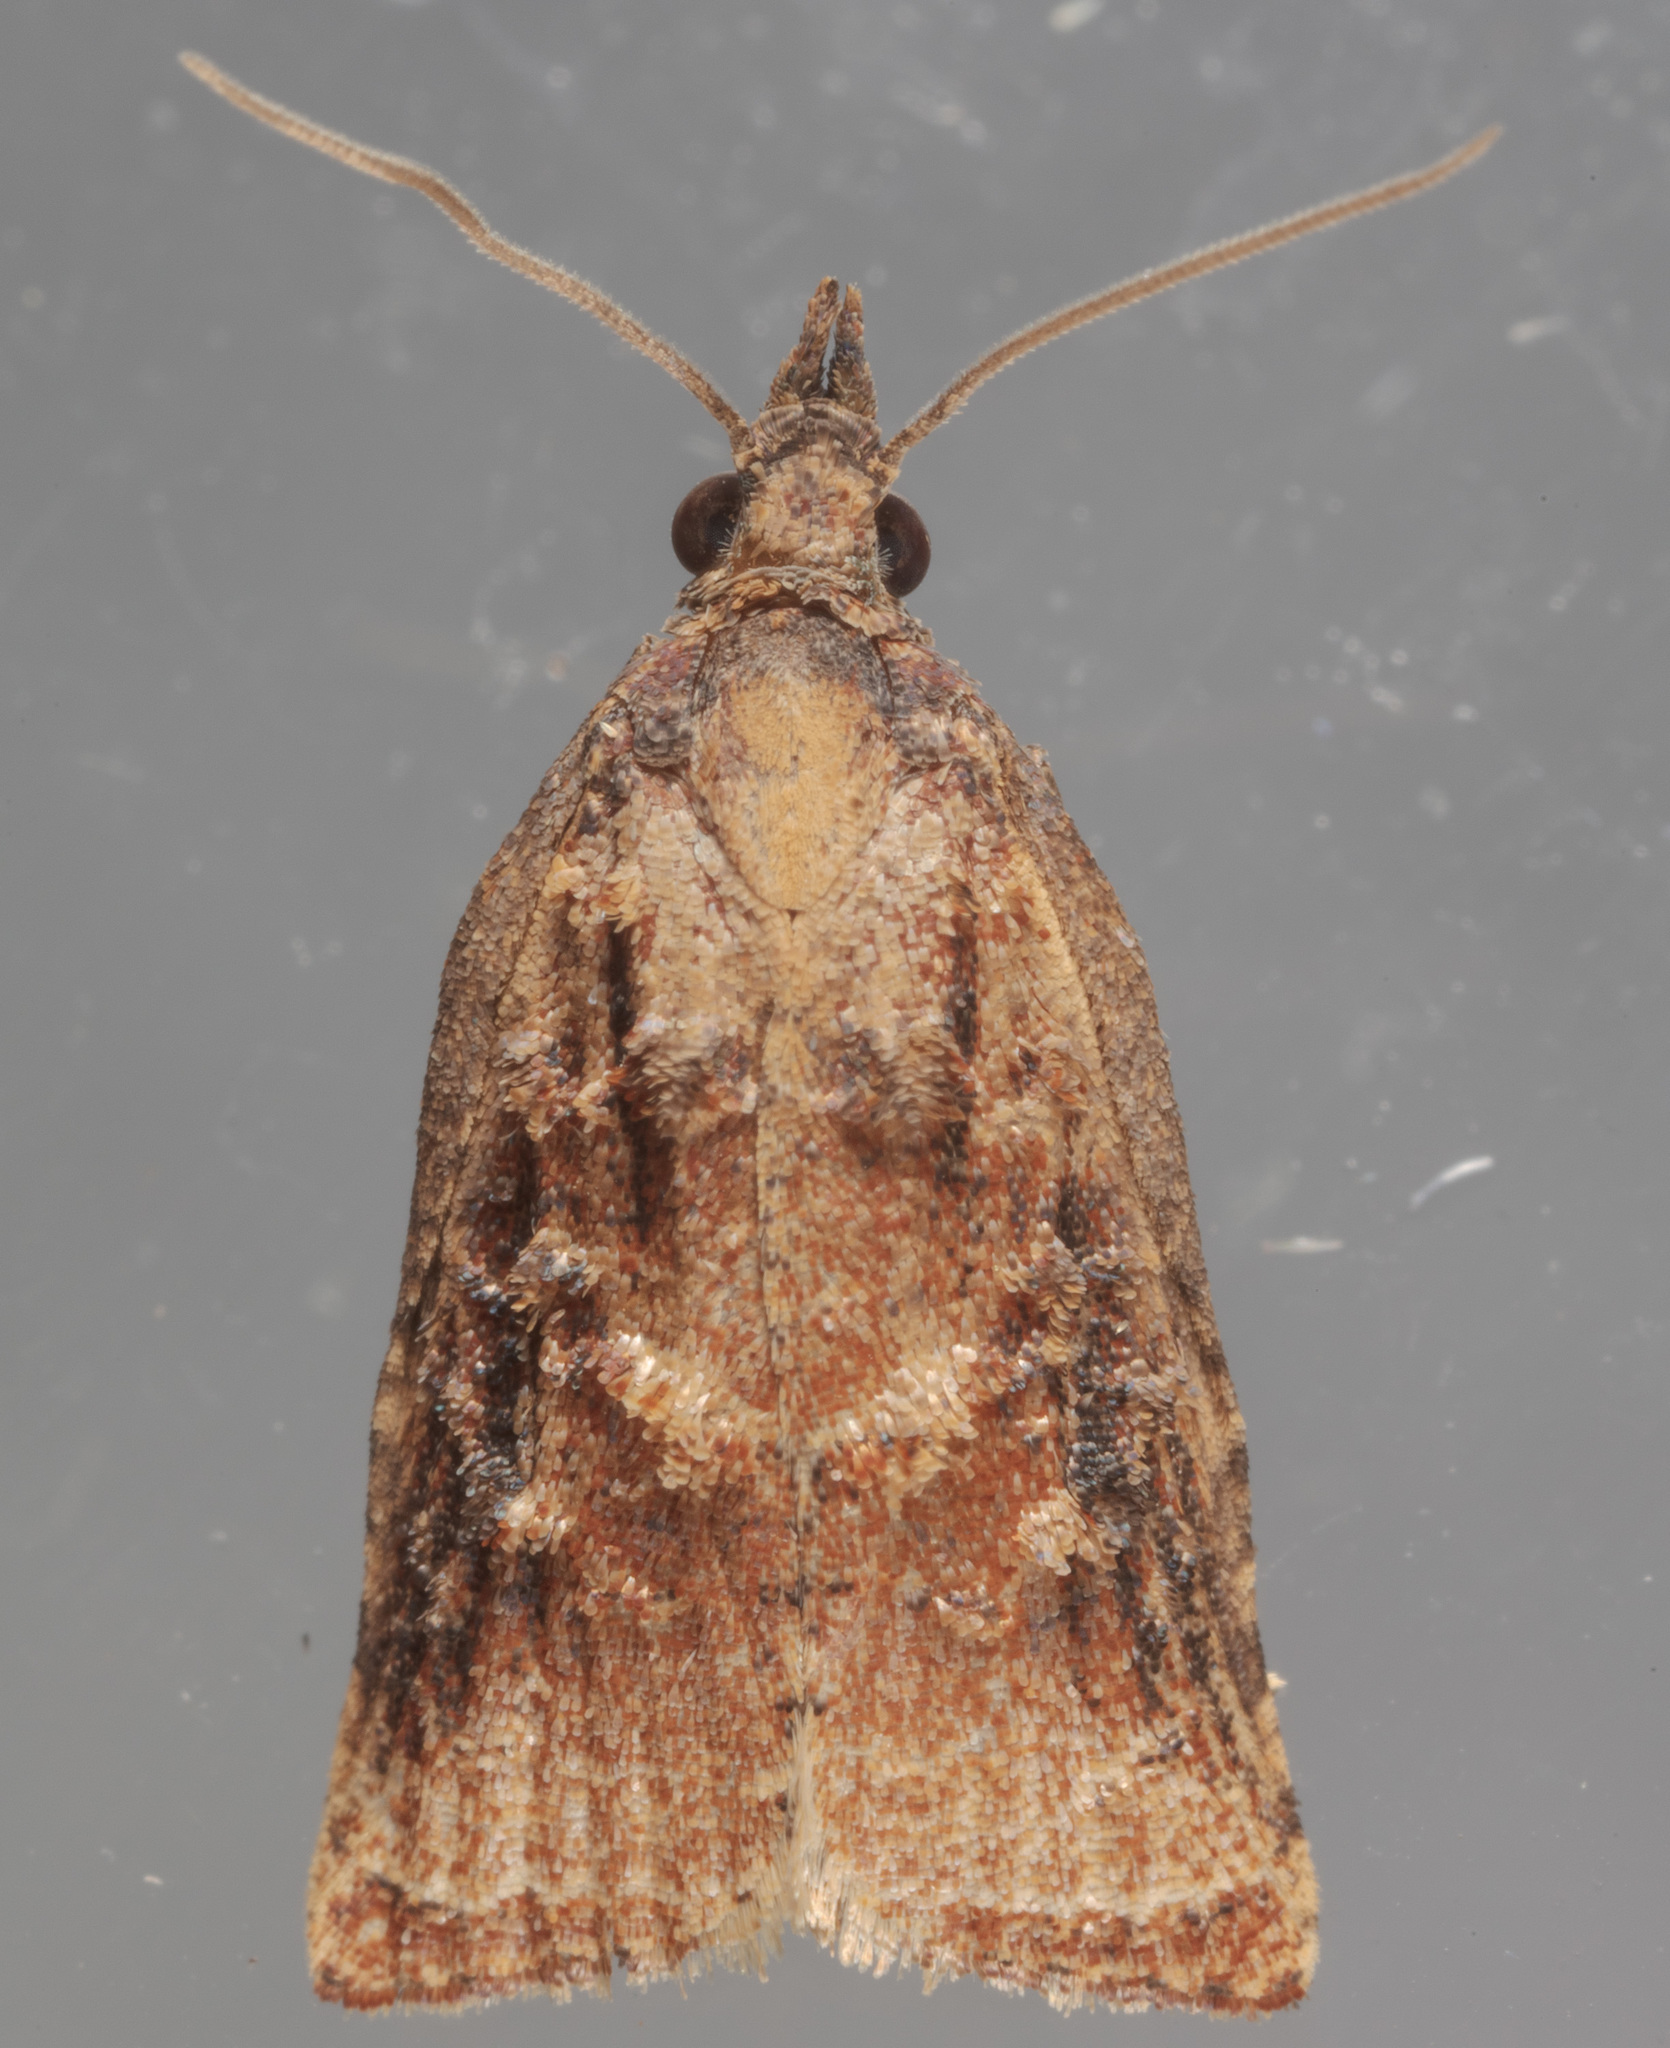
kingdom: Animalia
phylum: Arthropoda
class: Insecta
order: Lepidoptera
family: Tortricidae
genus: Platynota
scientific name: Platynota rostrana
